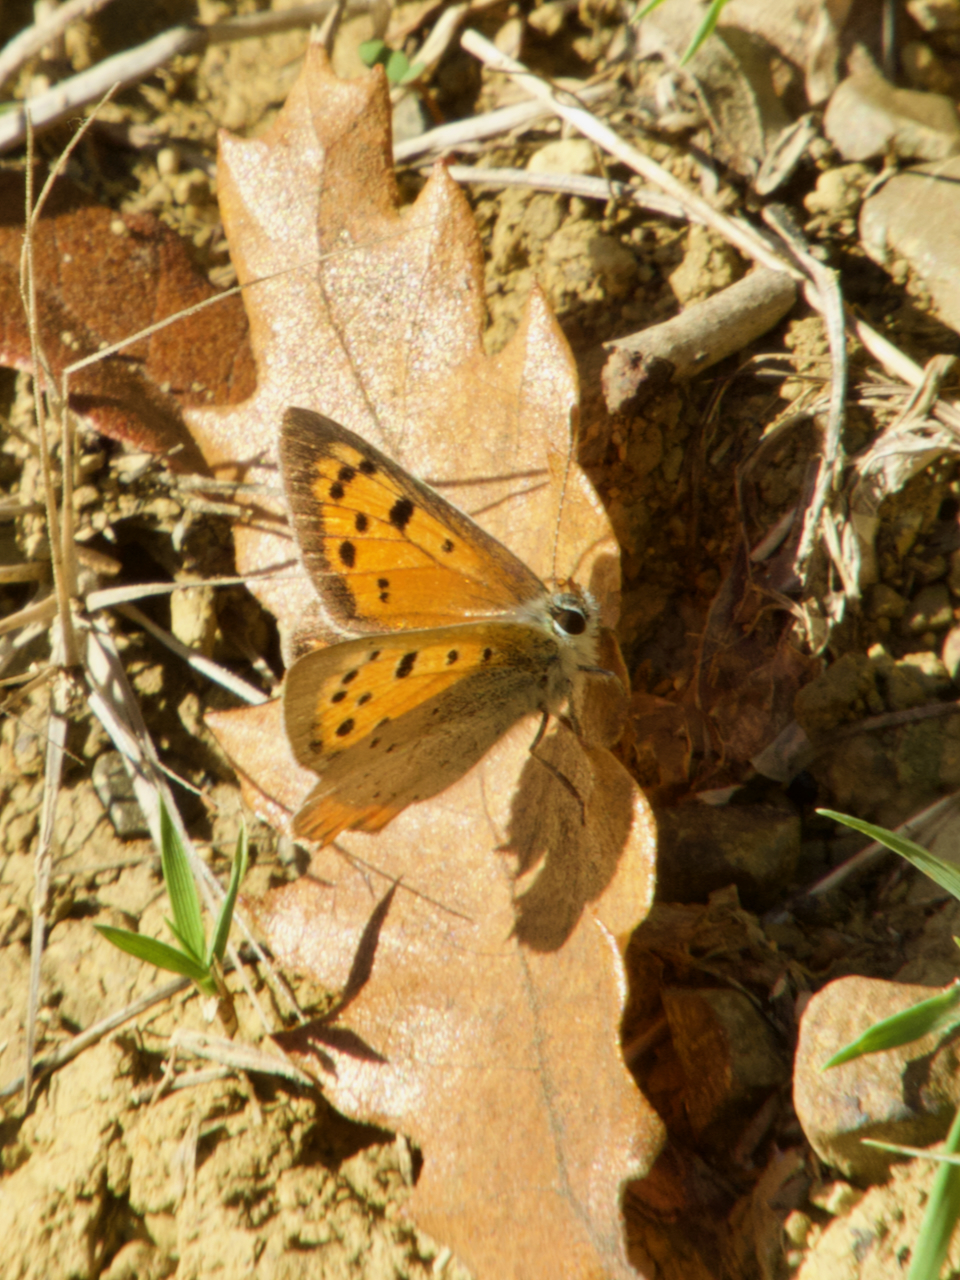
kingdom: Animalia
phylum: Arthropoda
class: Insecta
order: Lepidoptera
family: Lycaenidae
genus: Lycaena
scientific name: Lycaena phlaeas
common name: Small copper
